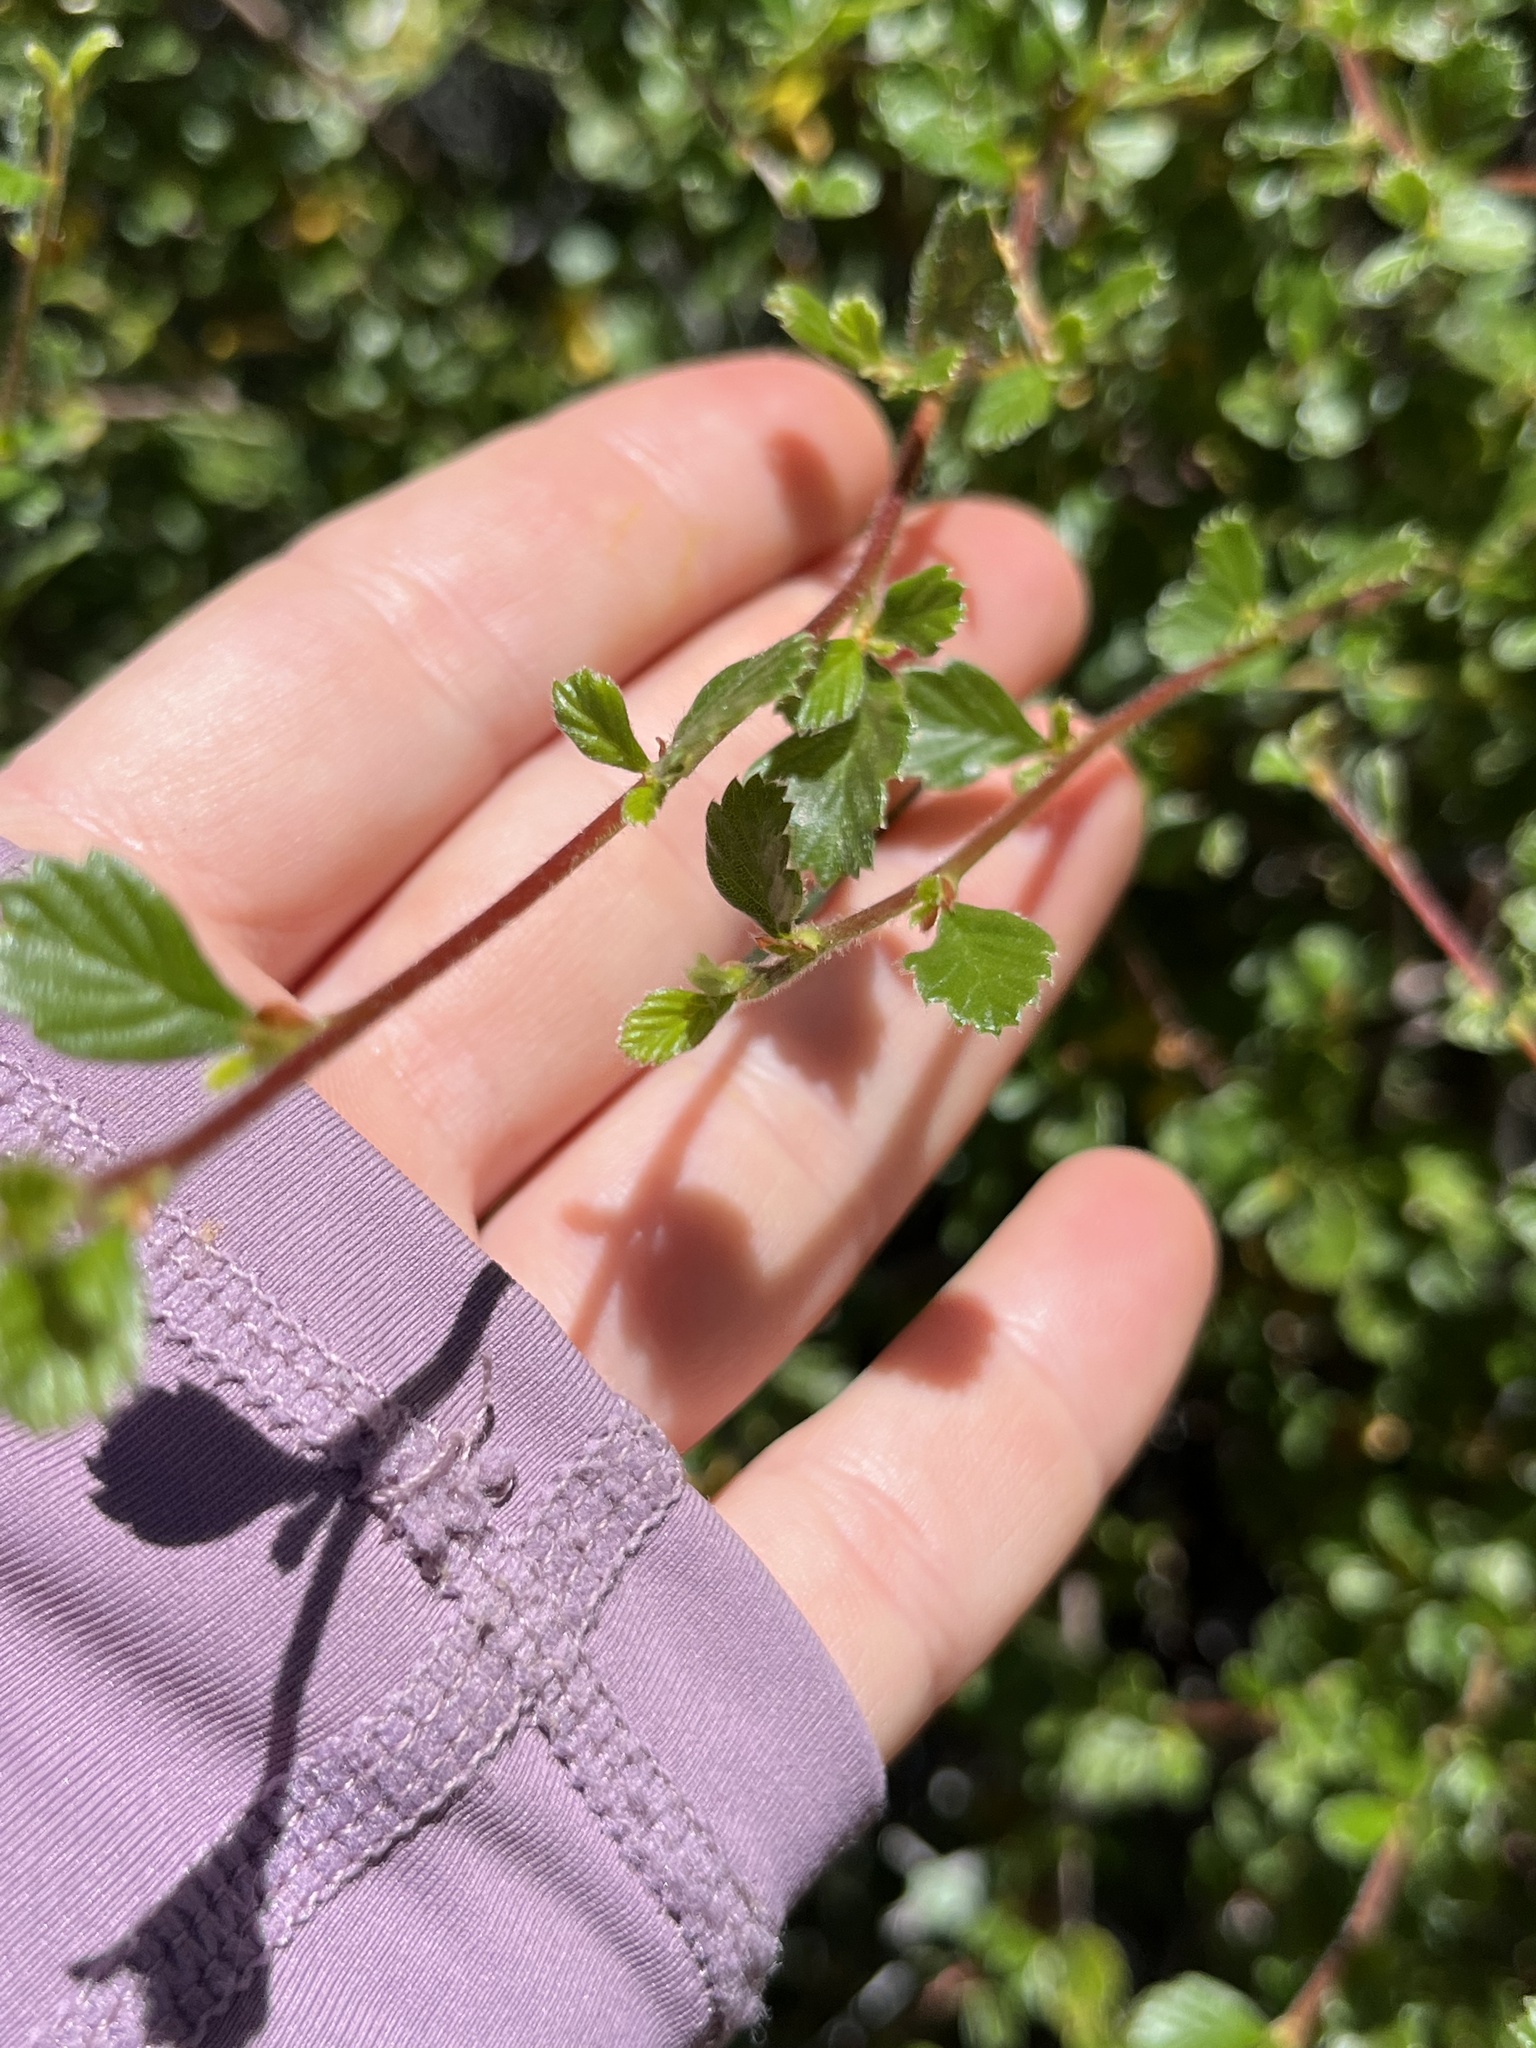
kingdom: Plantae
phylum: Tracheophyta
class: Magnoliopsida
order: Rosales
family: Rosaceae
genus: Cercocarpus
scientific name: Cercocarpus betuloides
